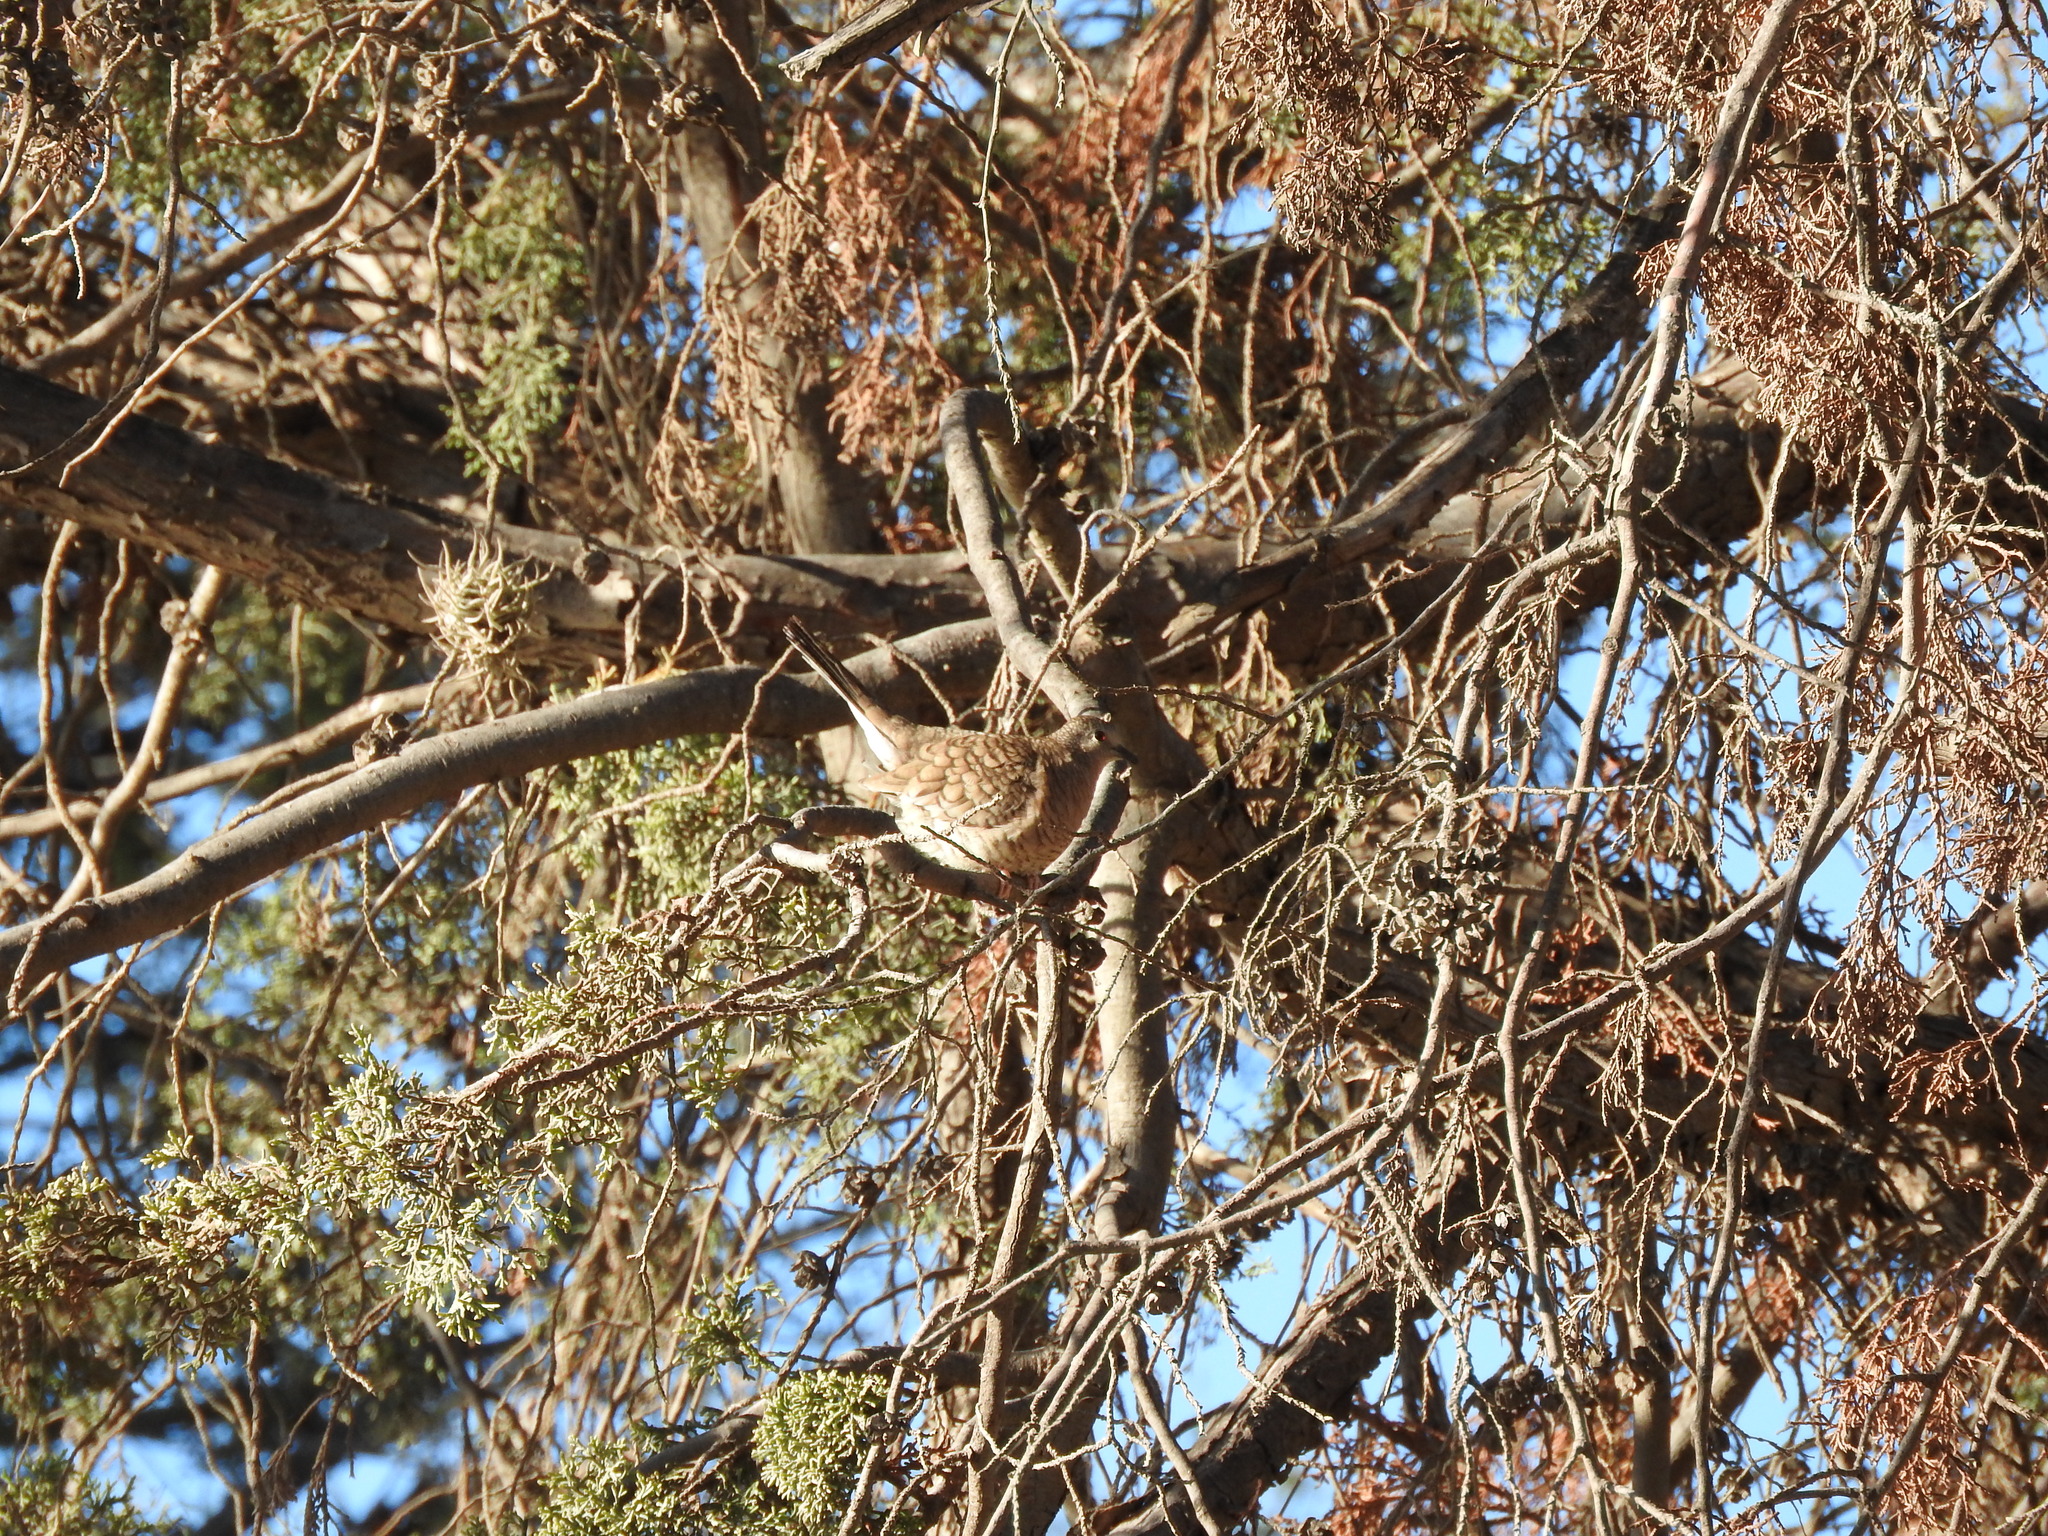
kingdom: Animalia
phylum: Chordata
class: Aves
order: Columbiformes
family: Columbidae
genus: Columbina
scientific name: Columbina inca
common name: Inca dove
